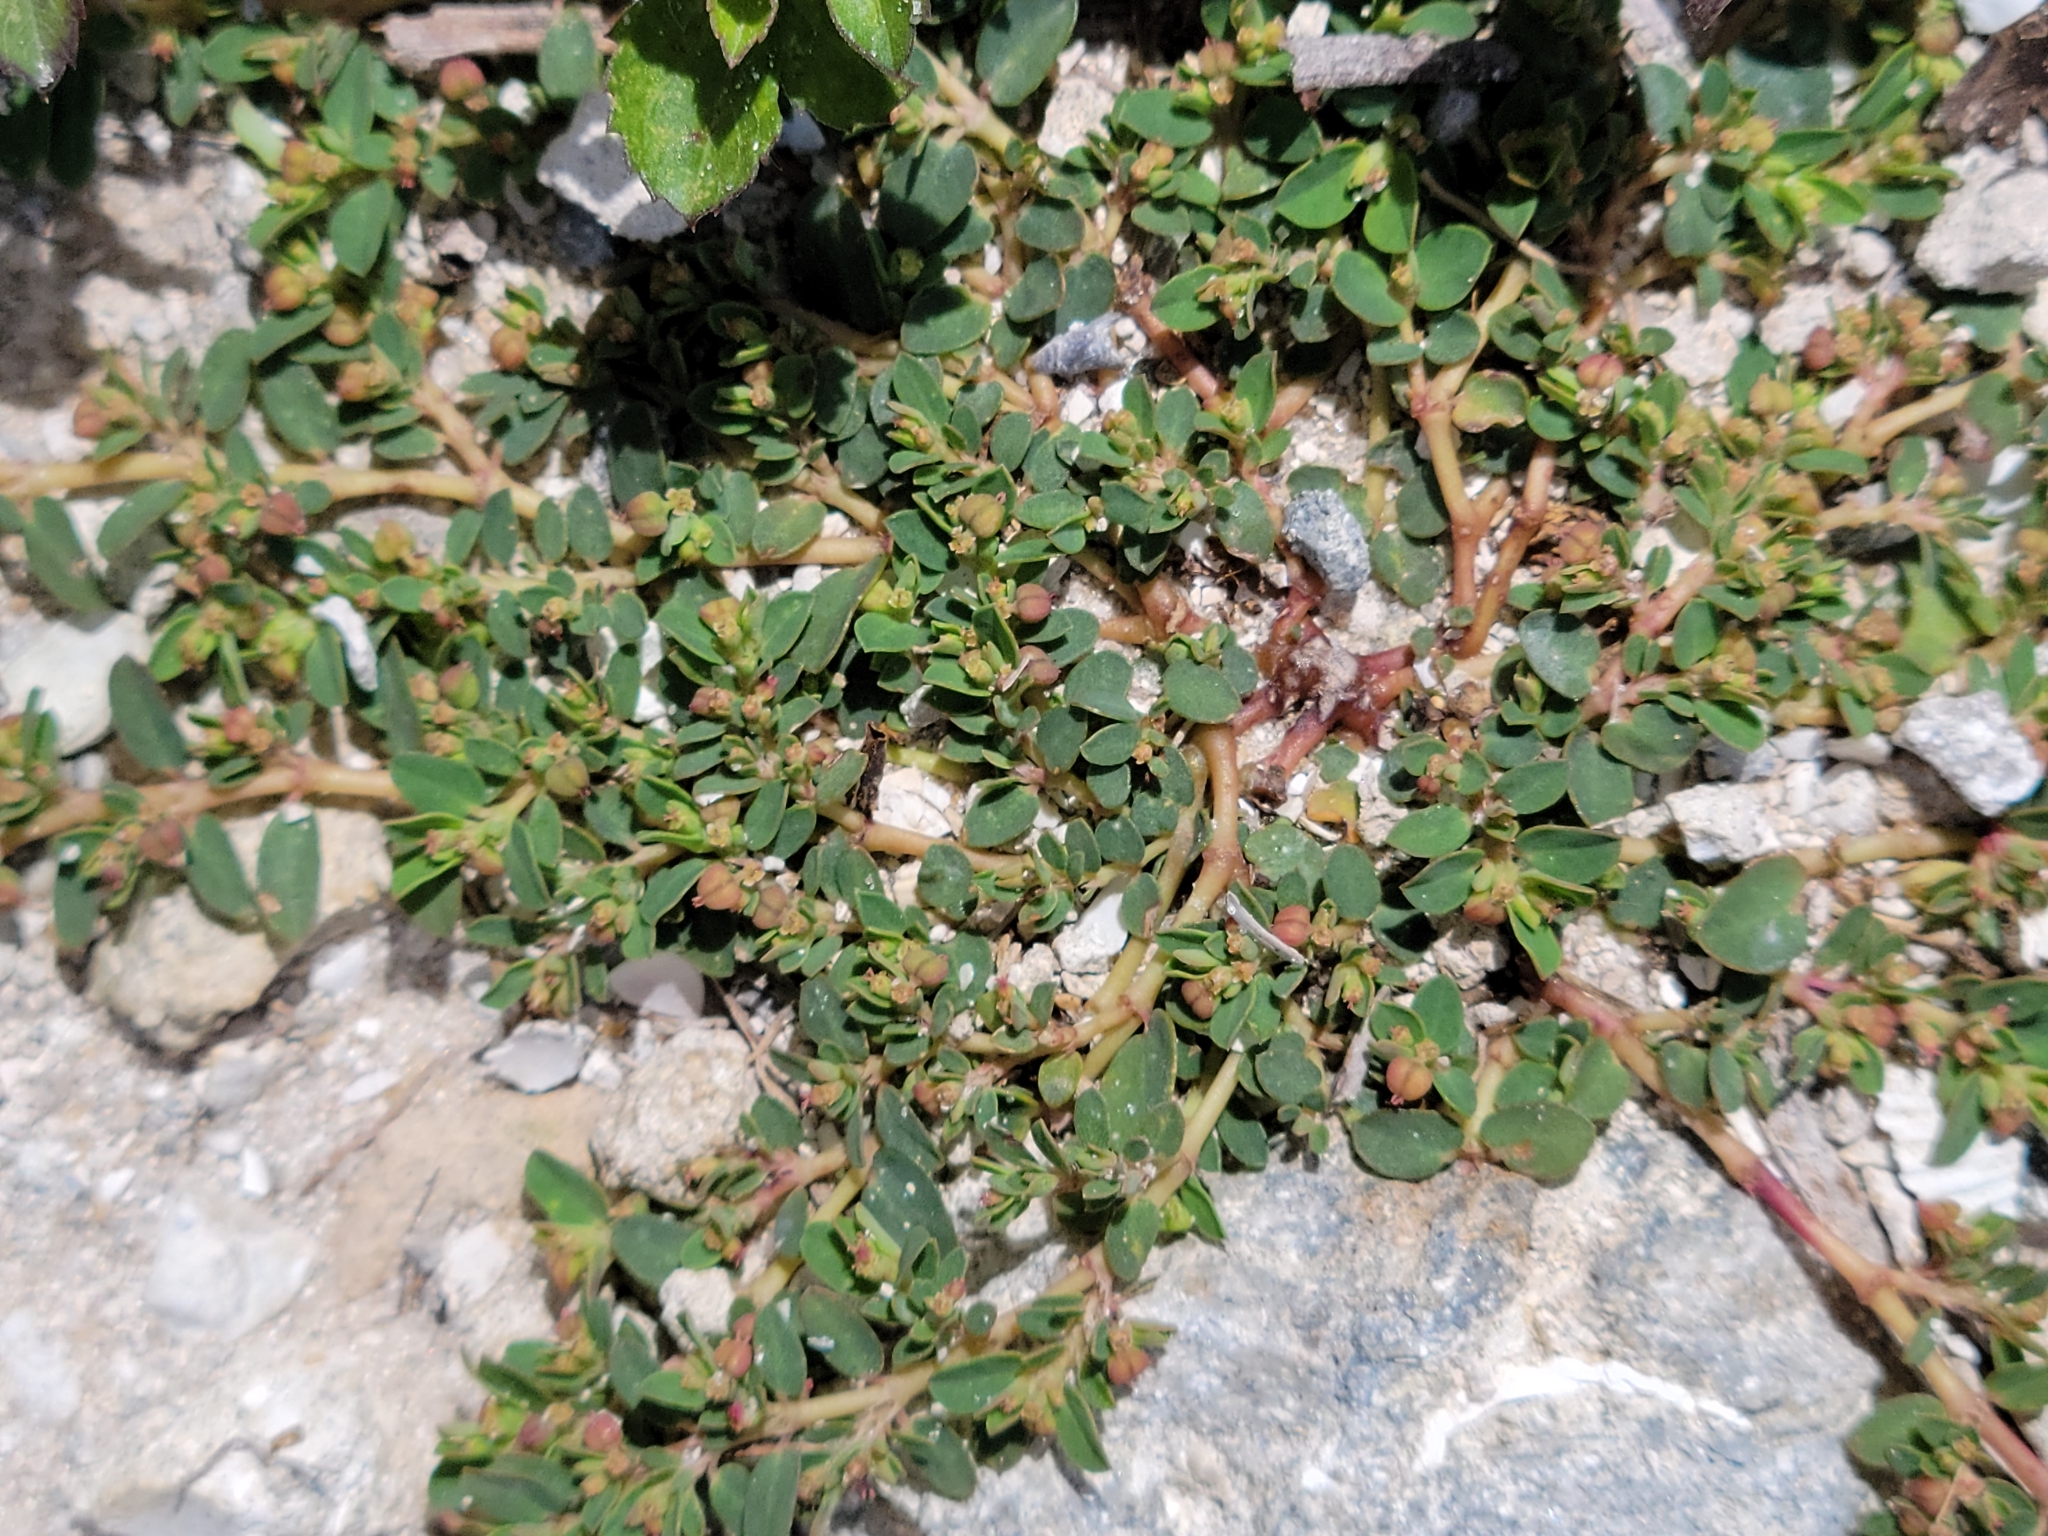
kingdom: Plantae
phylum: Tracheophyta
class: Magnoliopsida
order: Malpighiales
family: Euphorbiaceae
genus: Euphorbia
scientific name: Euphorbia blodgettii
